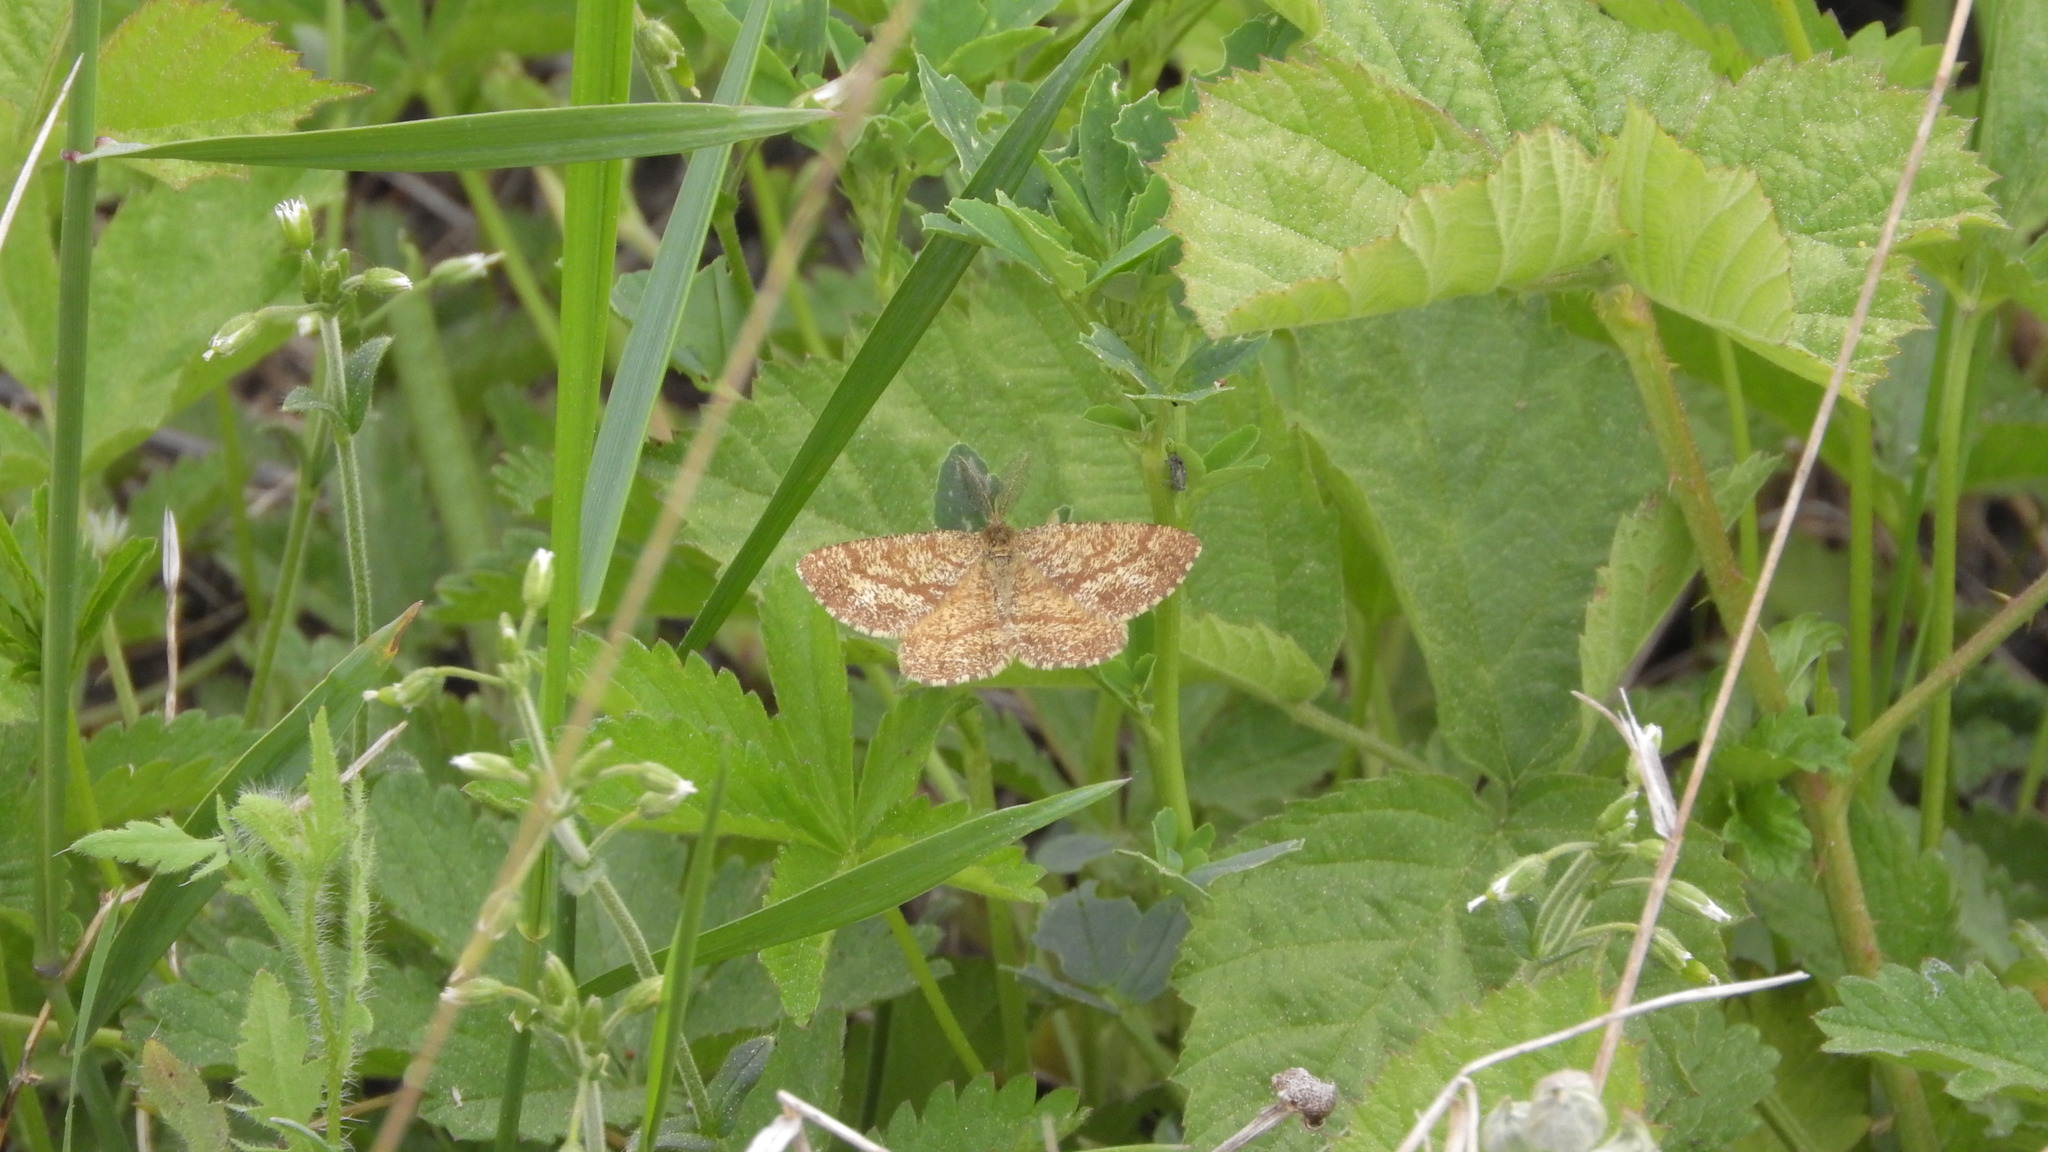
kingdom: Animalia
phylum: Arthropoda
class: Insecta
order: Lepidoptera
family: Geometridae
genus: Ematurga
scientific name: Ematurga atomaria
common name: Common heath
